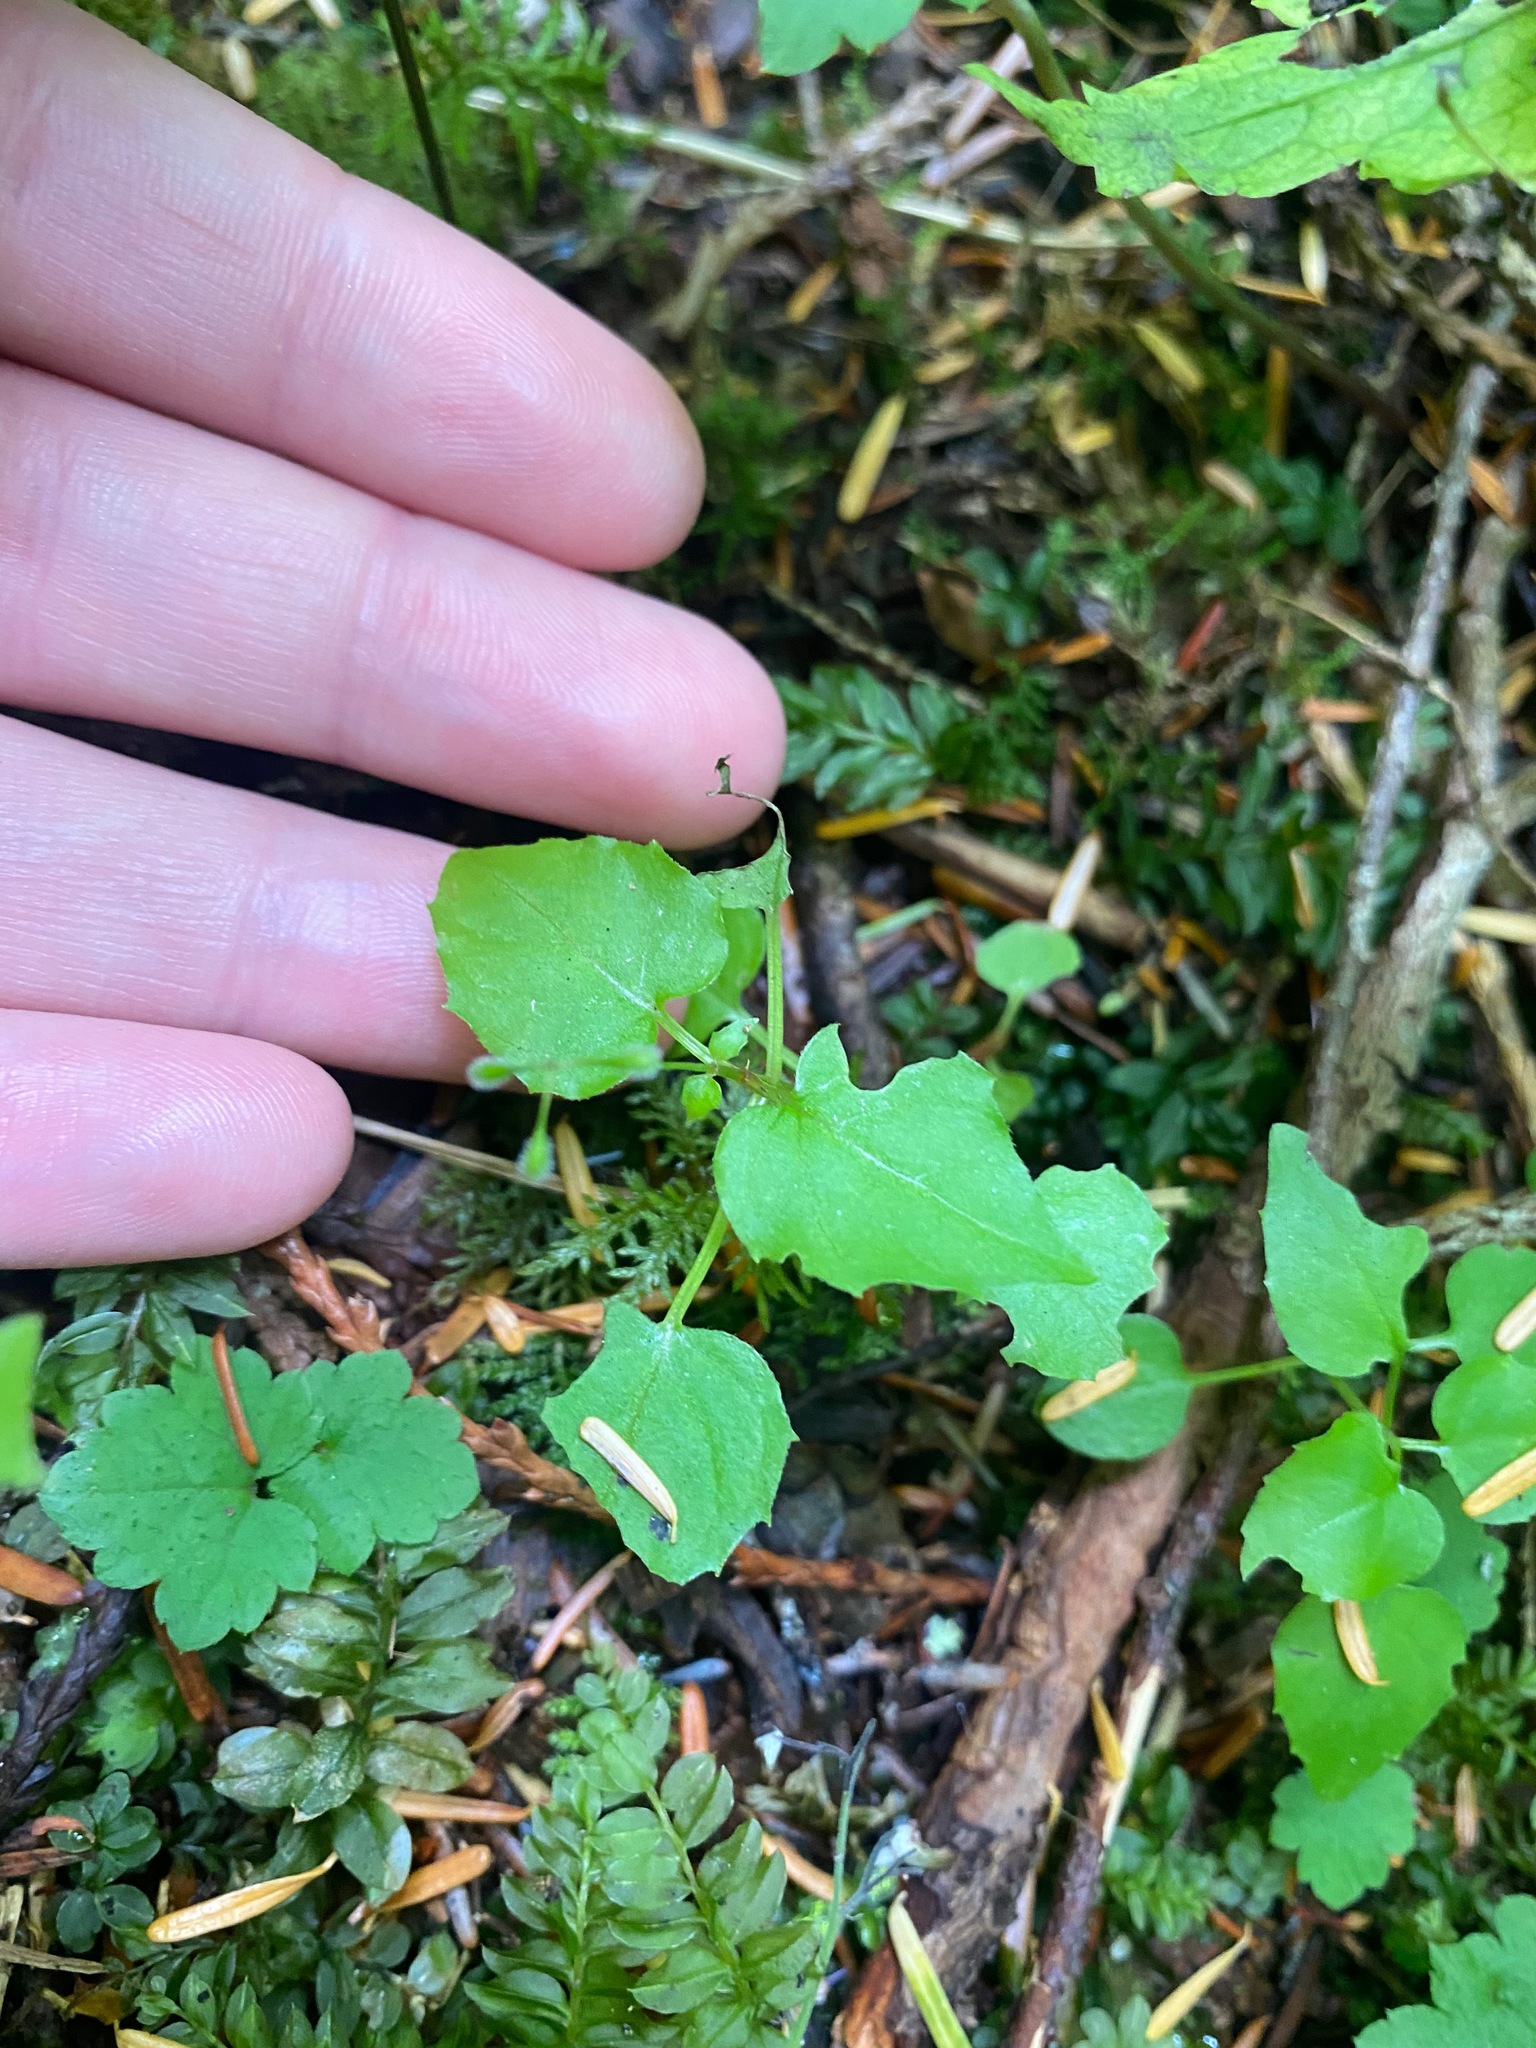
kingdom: Plantae
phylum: Tracheophyta
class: Magnoliopsida
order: Myrtales
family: Onagraceae
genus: Circaea
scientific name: Circaea alpina
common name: Alpine enchanter's-nightshade
